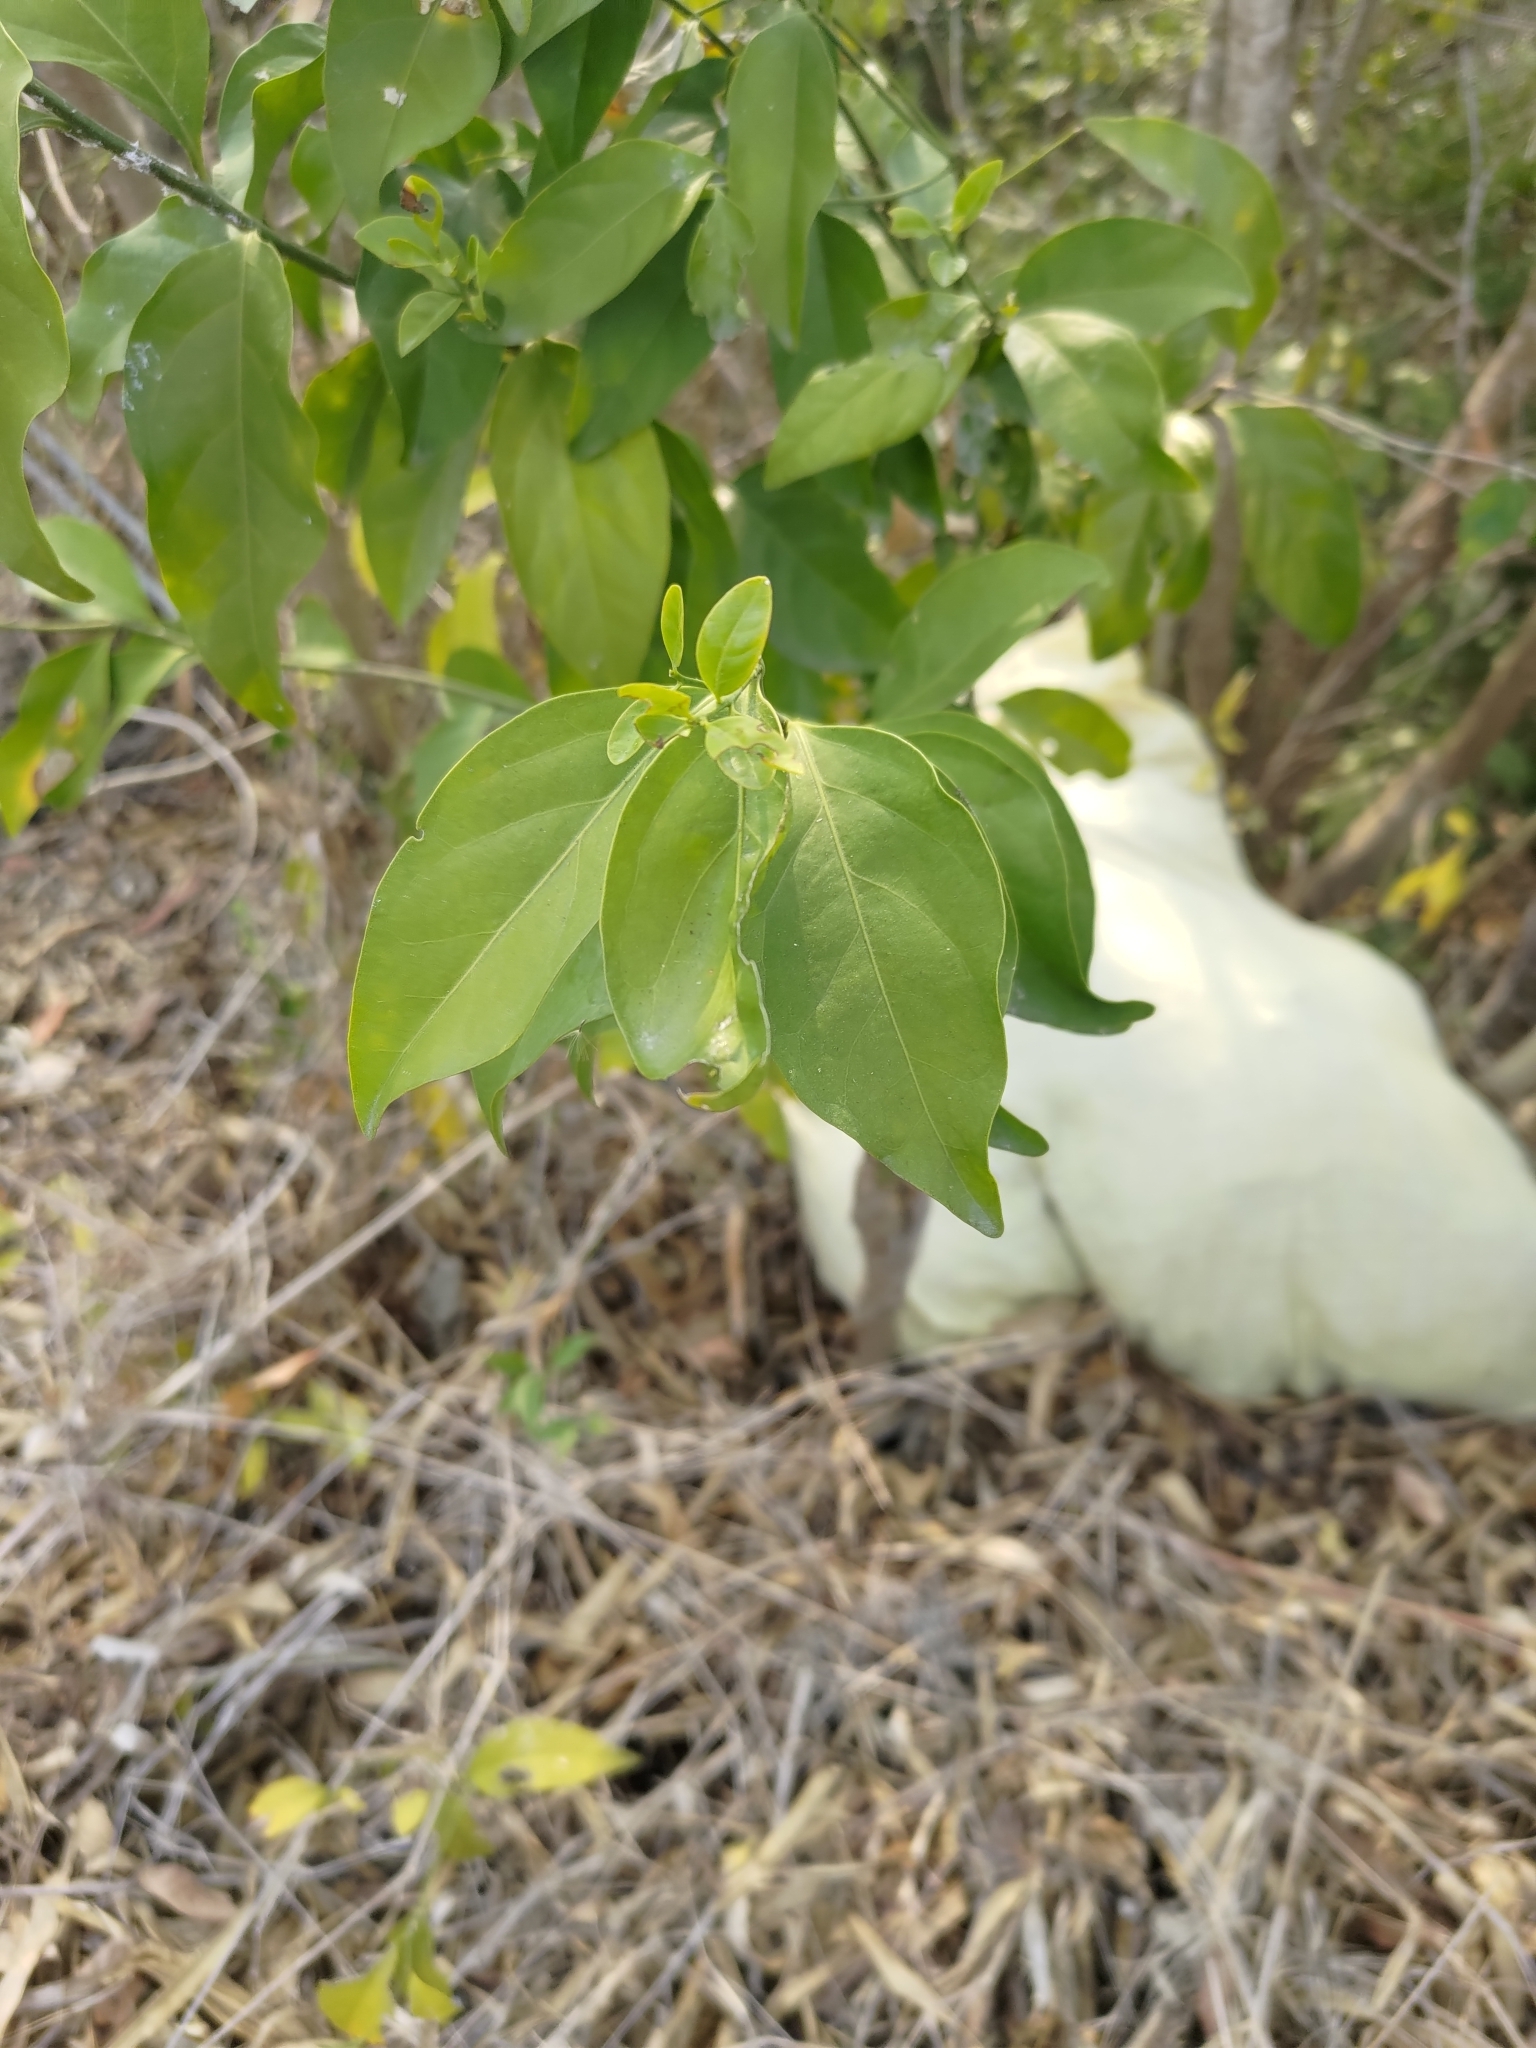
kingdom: Plantae
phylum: Tracheophyta
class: Magnoliopsida
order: Santalales
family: Opiliaceae
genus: Champereia
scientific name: Champereia manillana
